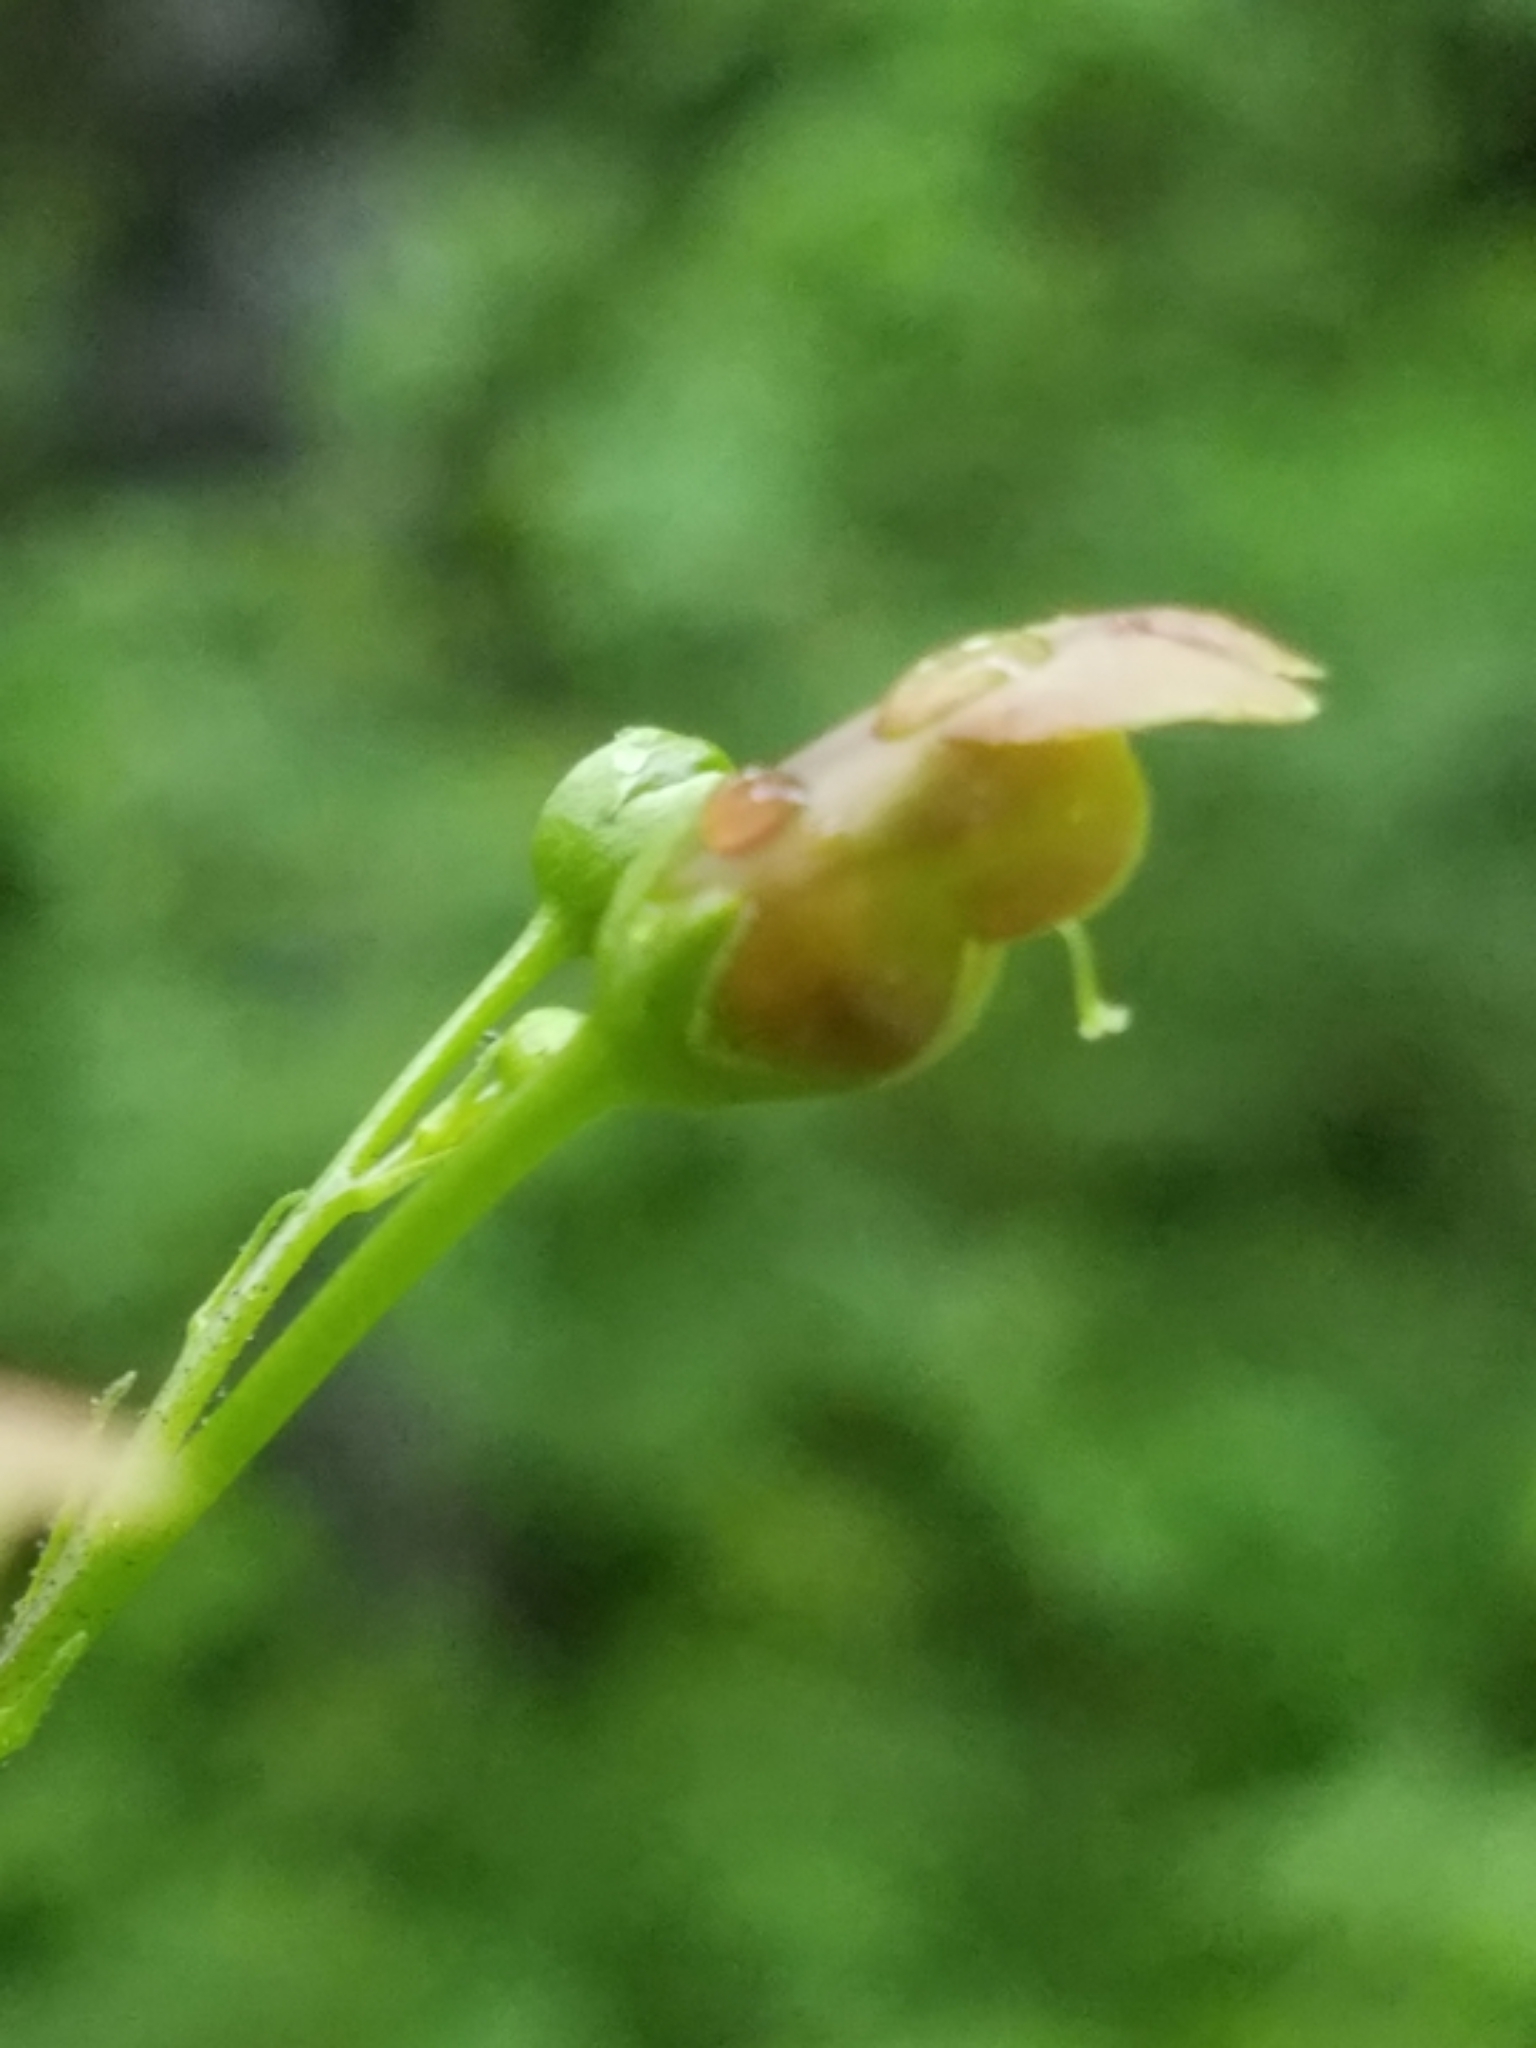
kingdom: Plantae
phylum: Tracheophyta
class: Magnoliopsida
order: Lamiales
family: Scrophulariaceae
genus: Scrophularia
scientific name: Scrophularia lanceolata
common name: American figwort
